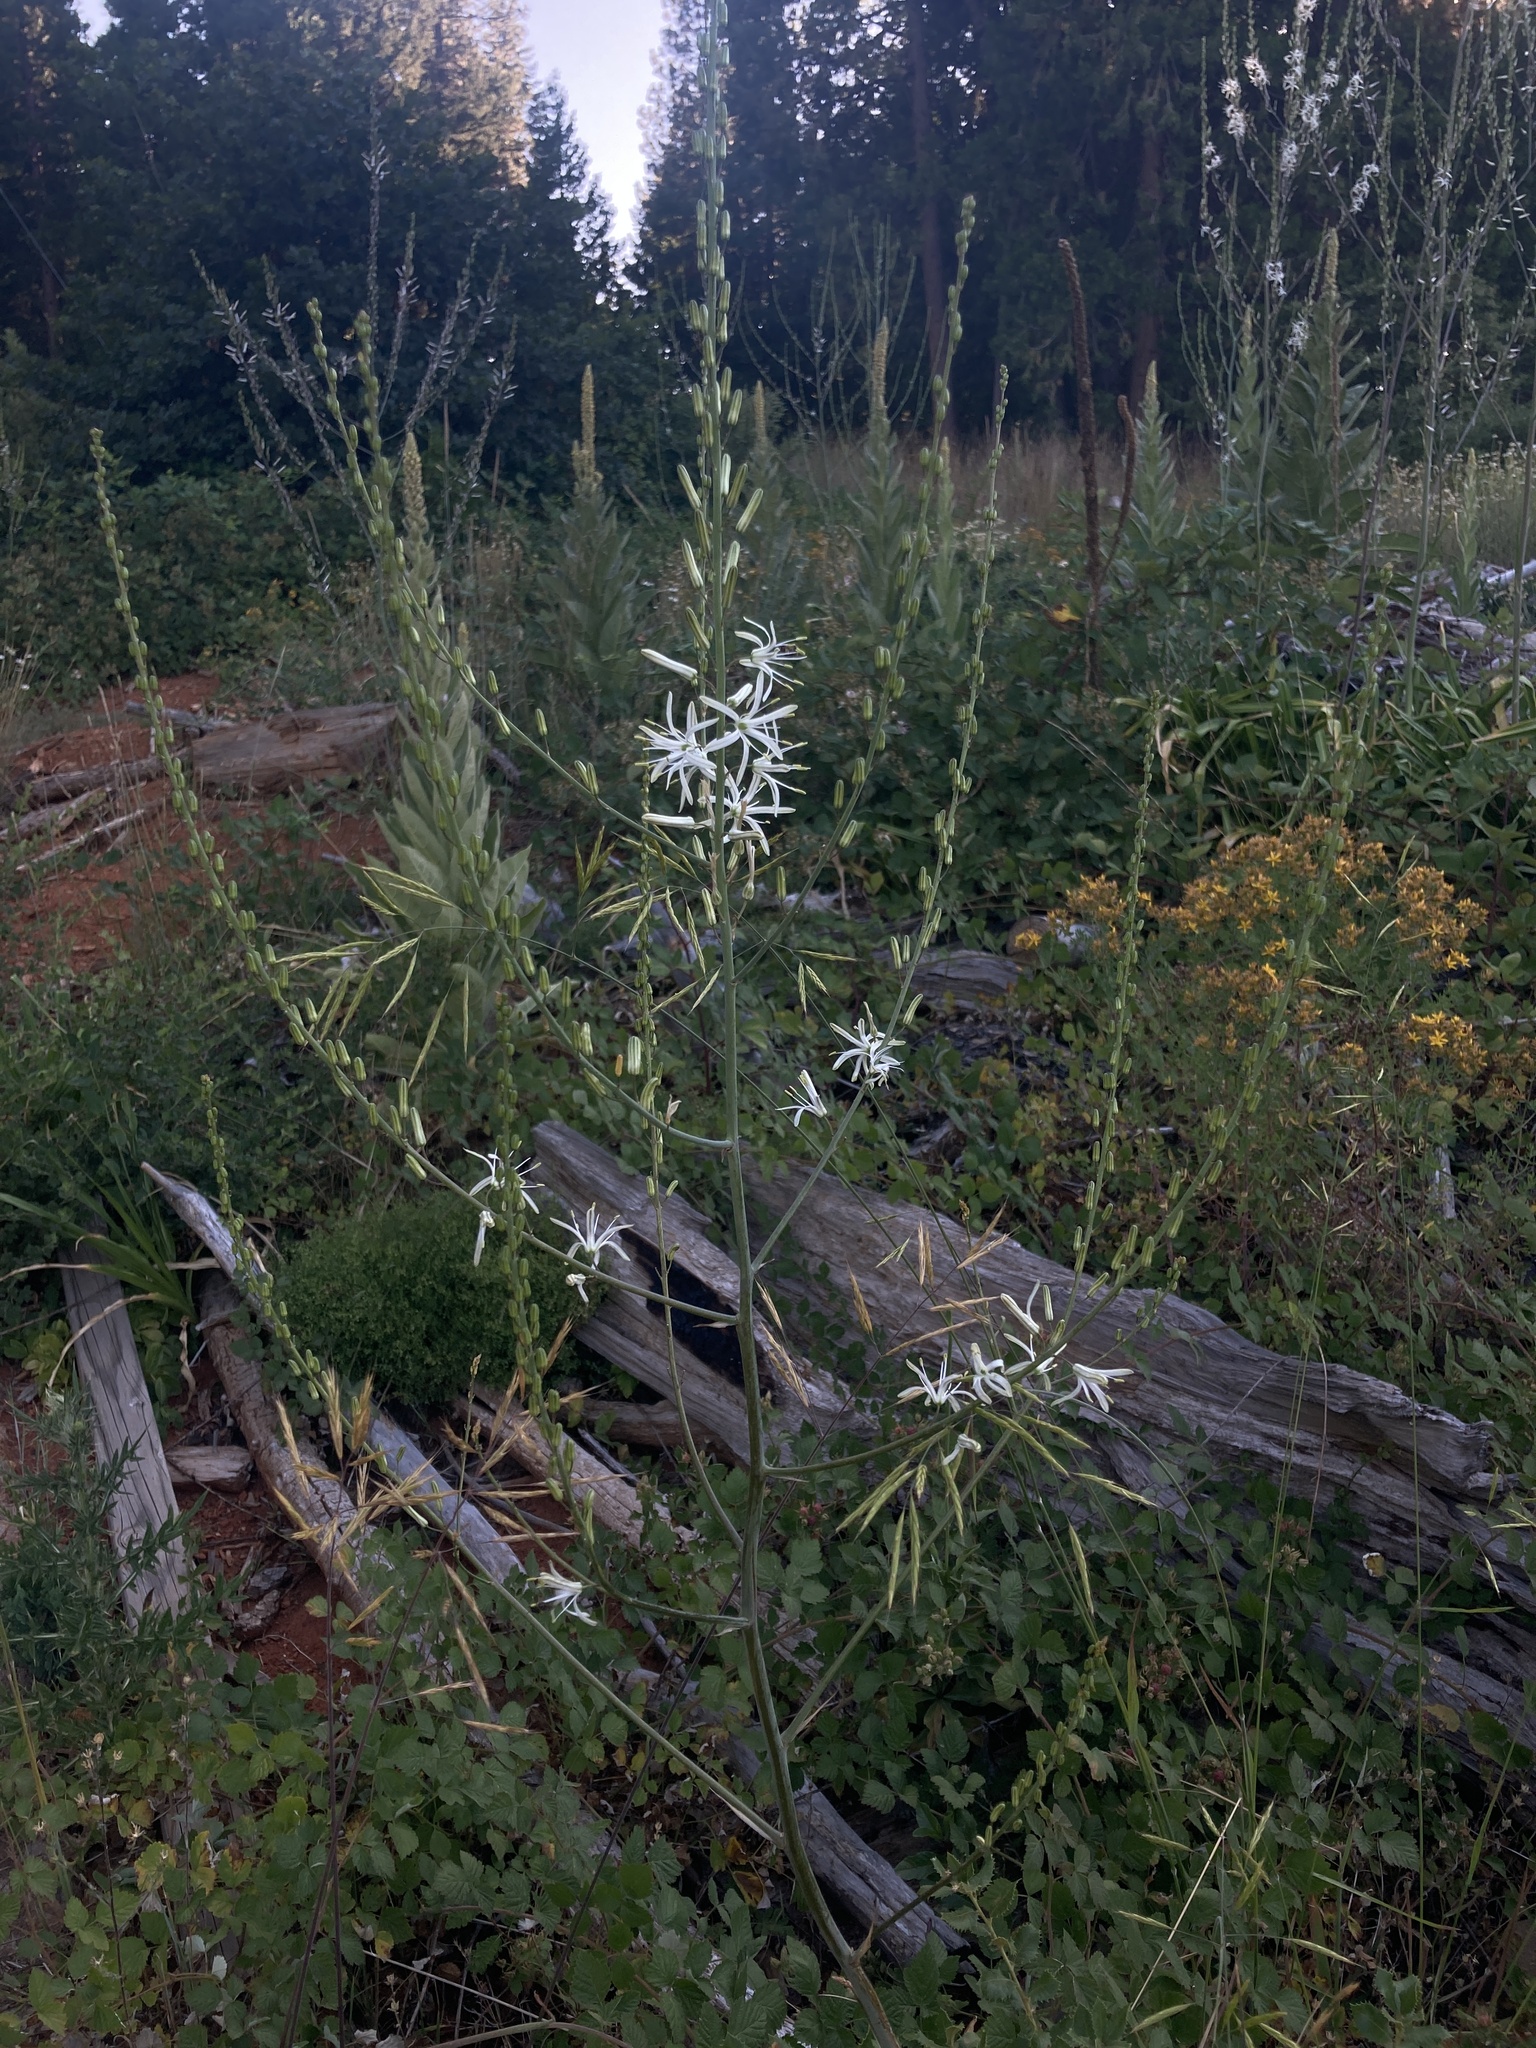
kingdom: Plantae
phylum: Tracheophyta
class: Liliopsida
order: Asparagales
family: Asparagaceae
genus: Chlorogalum
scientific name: Chlorogalum pomeridianum
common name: Amole
